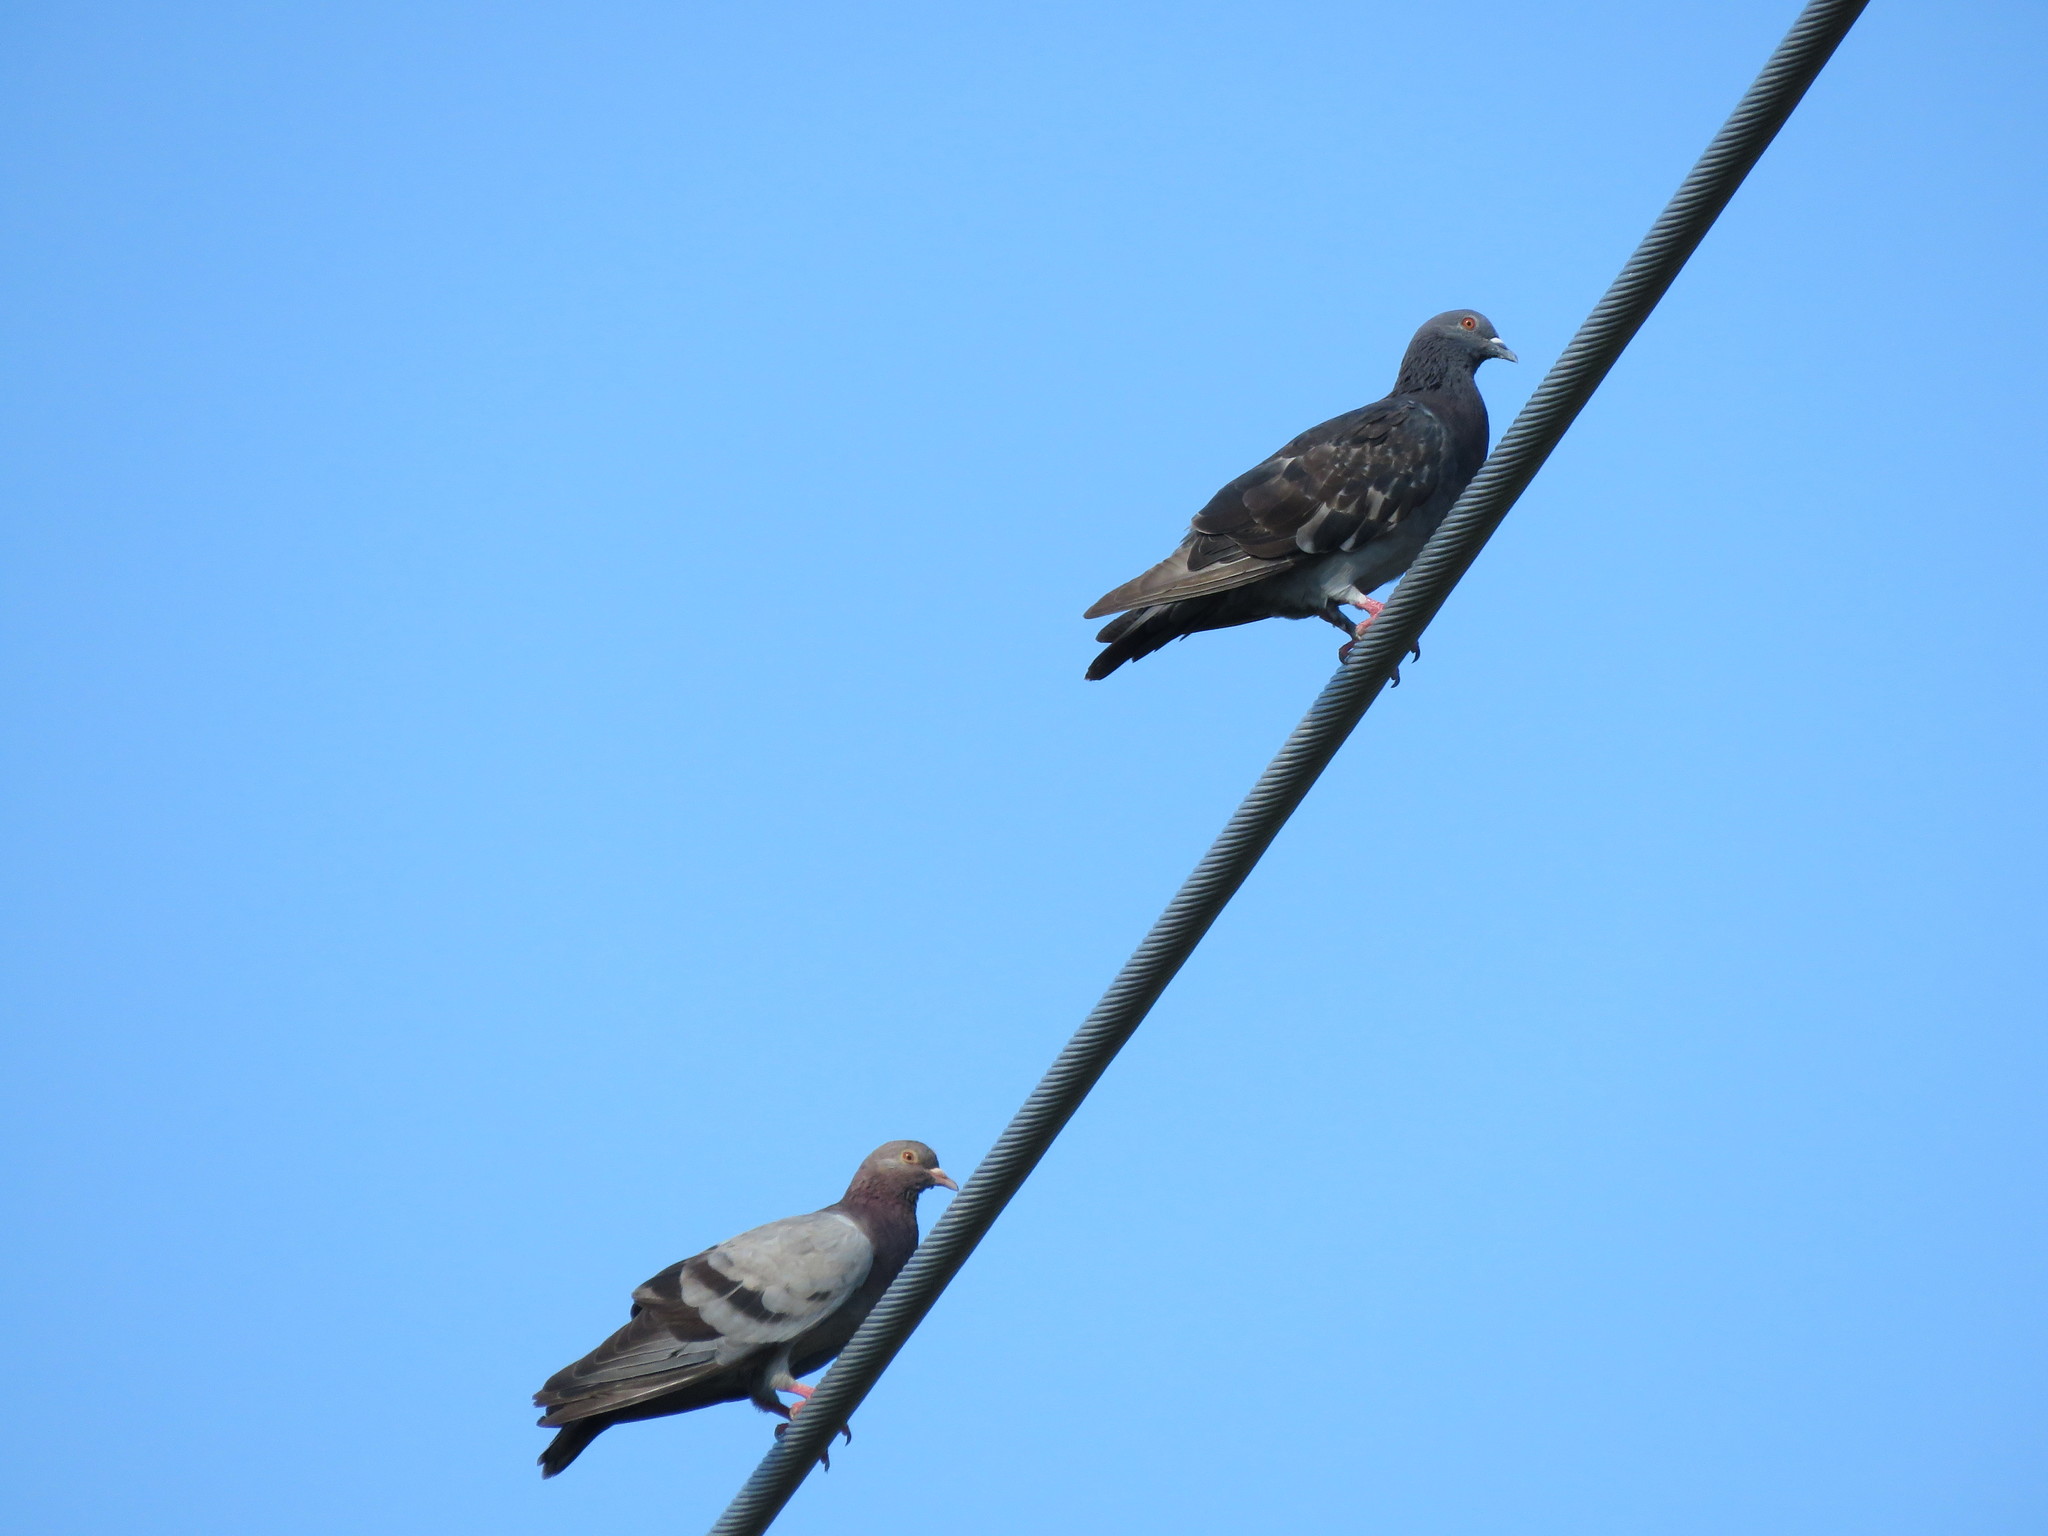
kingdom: Animalia
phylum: Chordata
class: Aves
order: Columbiformes
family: Columbidae
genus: Columba
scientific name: Columba livia
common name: Rock pigeon
